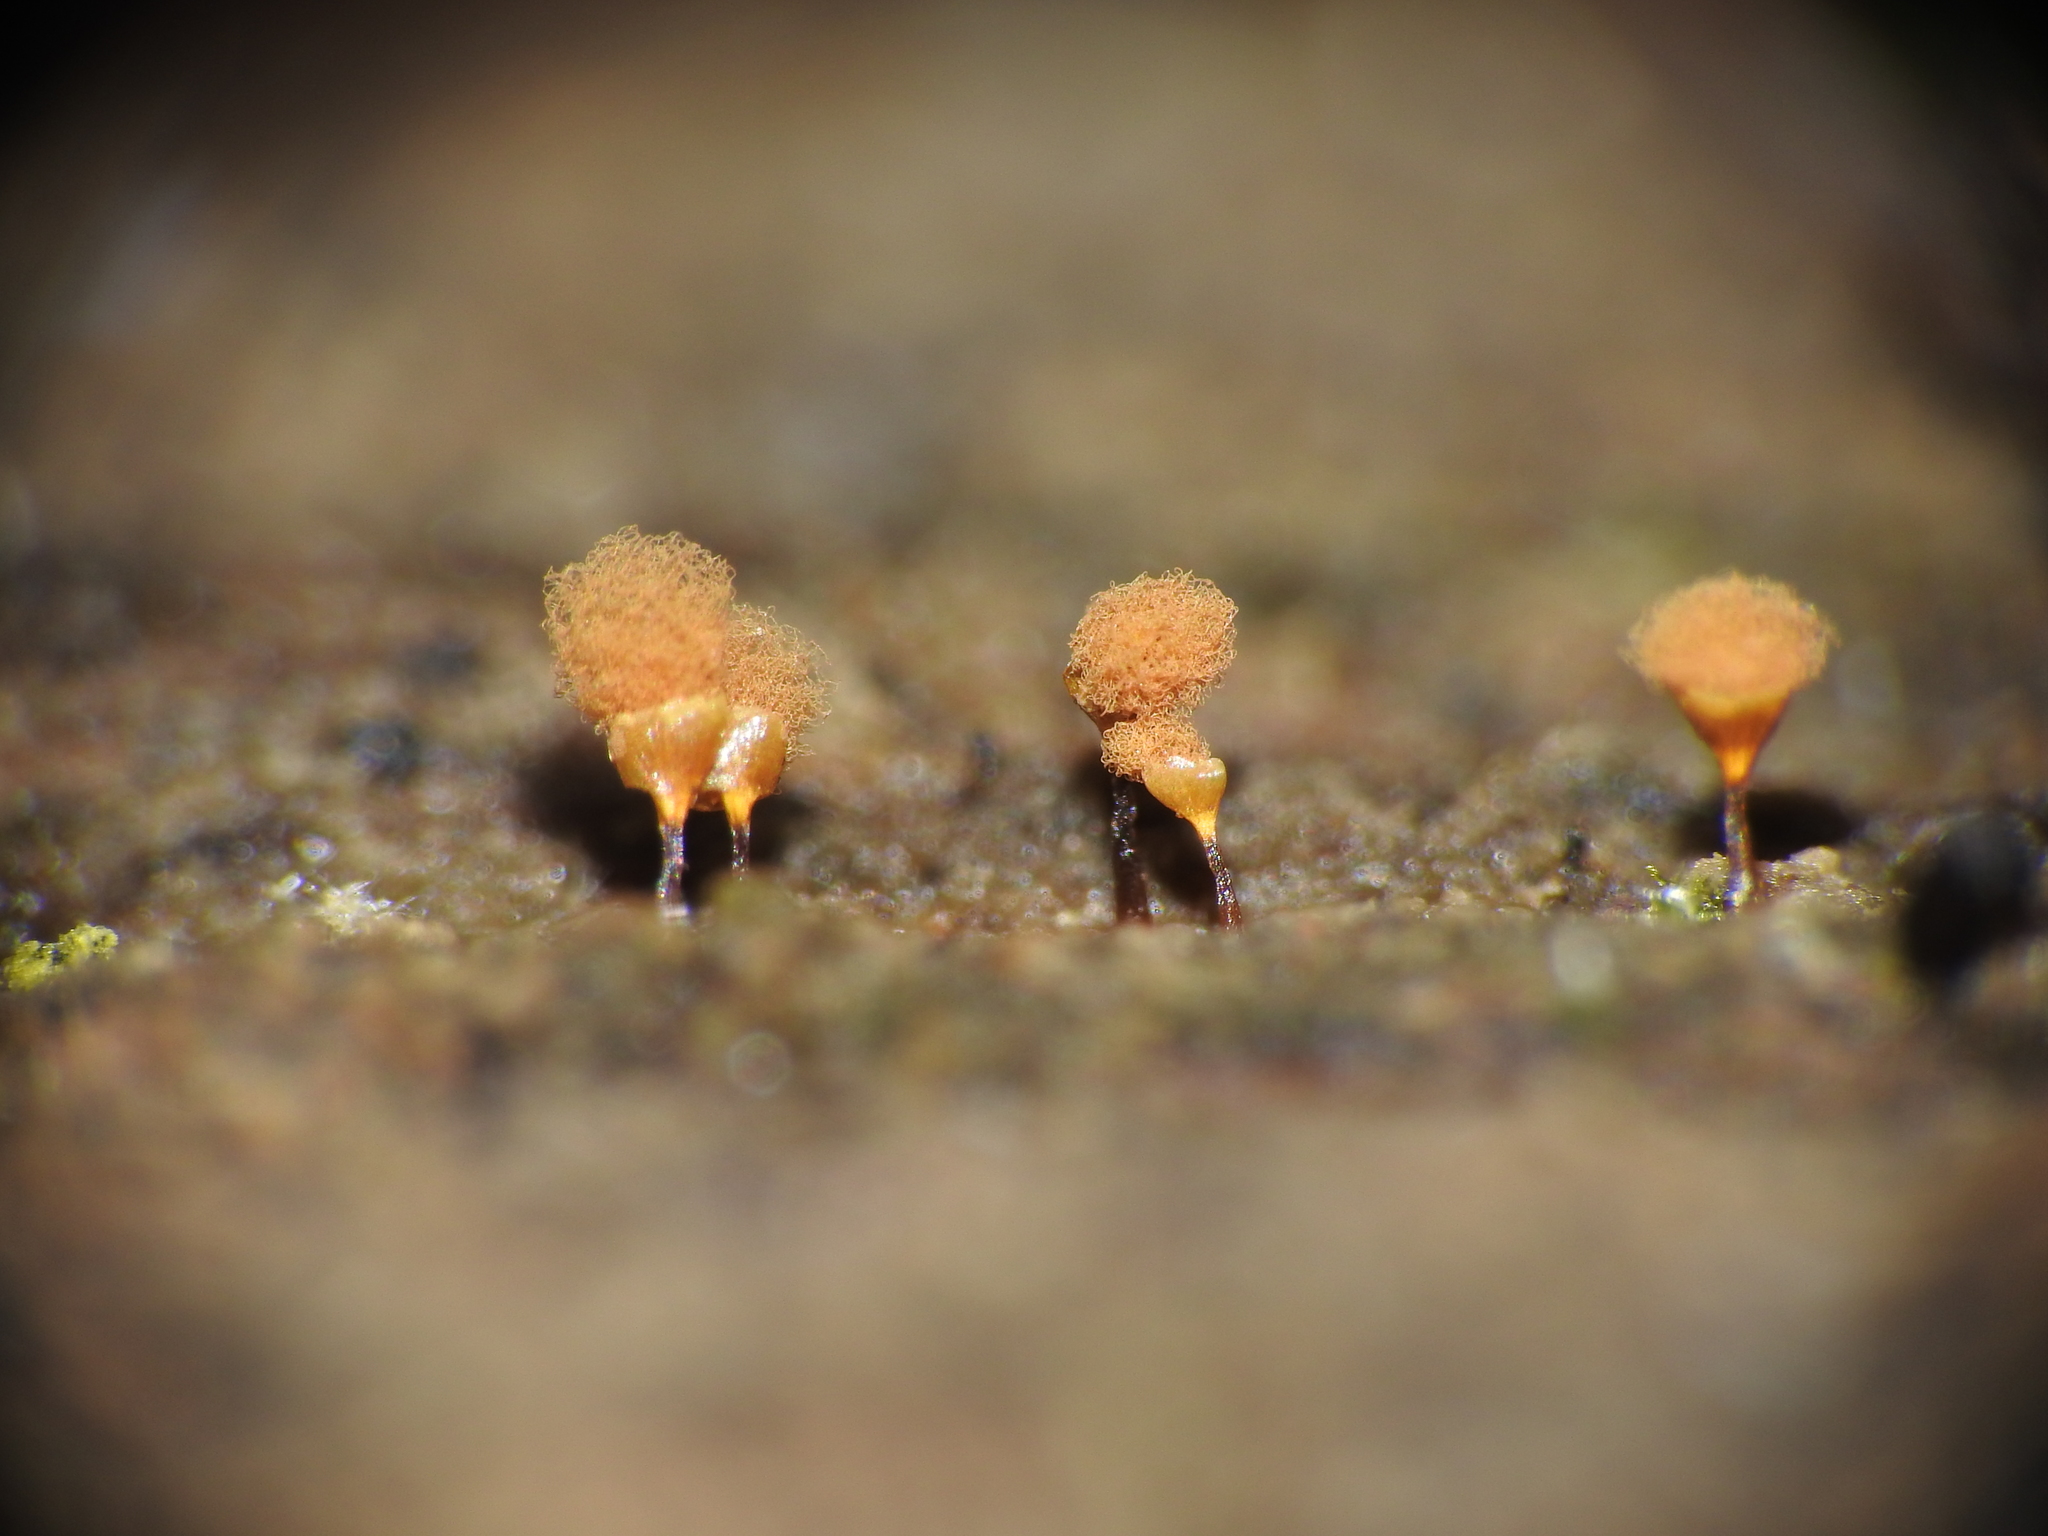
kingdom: Protozoa
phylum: Mycetozoa
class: Myxomycetes
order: Trichiales
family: Arcyriaceae
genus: Hemitrichia
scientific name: Hemitrichia calyculata
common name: Push pin slime mold
